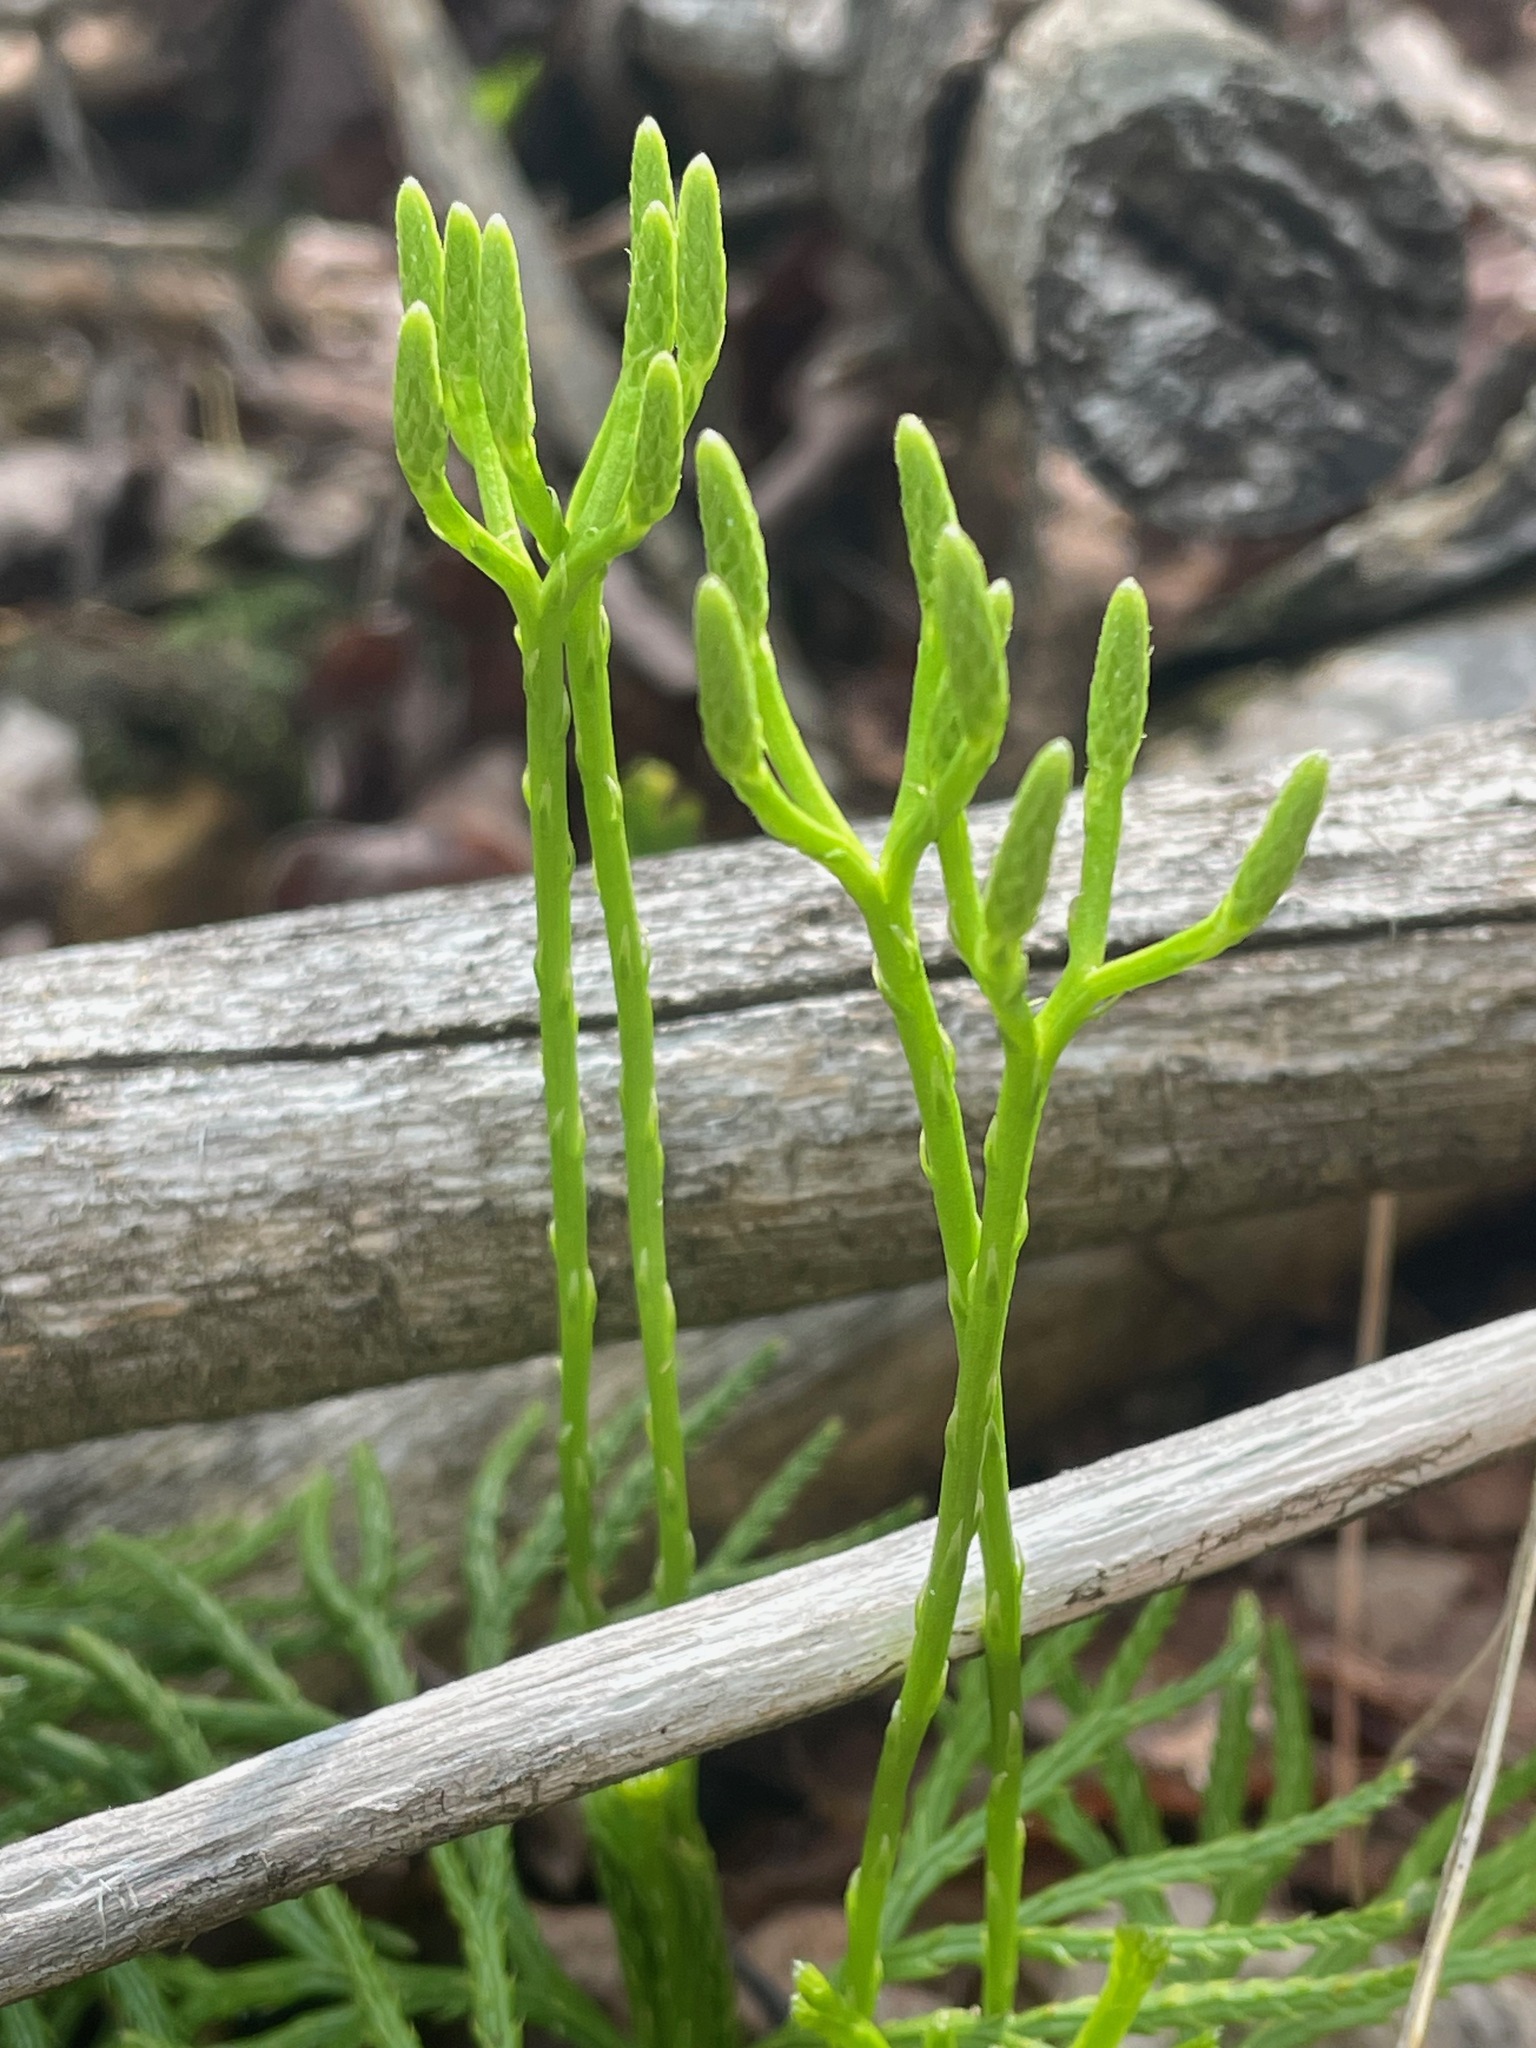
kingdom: Plantae
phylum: Tracheophyta
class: Lycopodiopsida
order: Lycopodiales
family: Lycopodiaceae
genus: Diphasiastrum
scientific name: Diphasiastrum digitatum
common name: Southern running-pine
